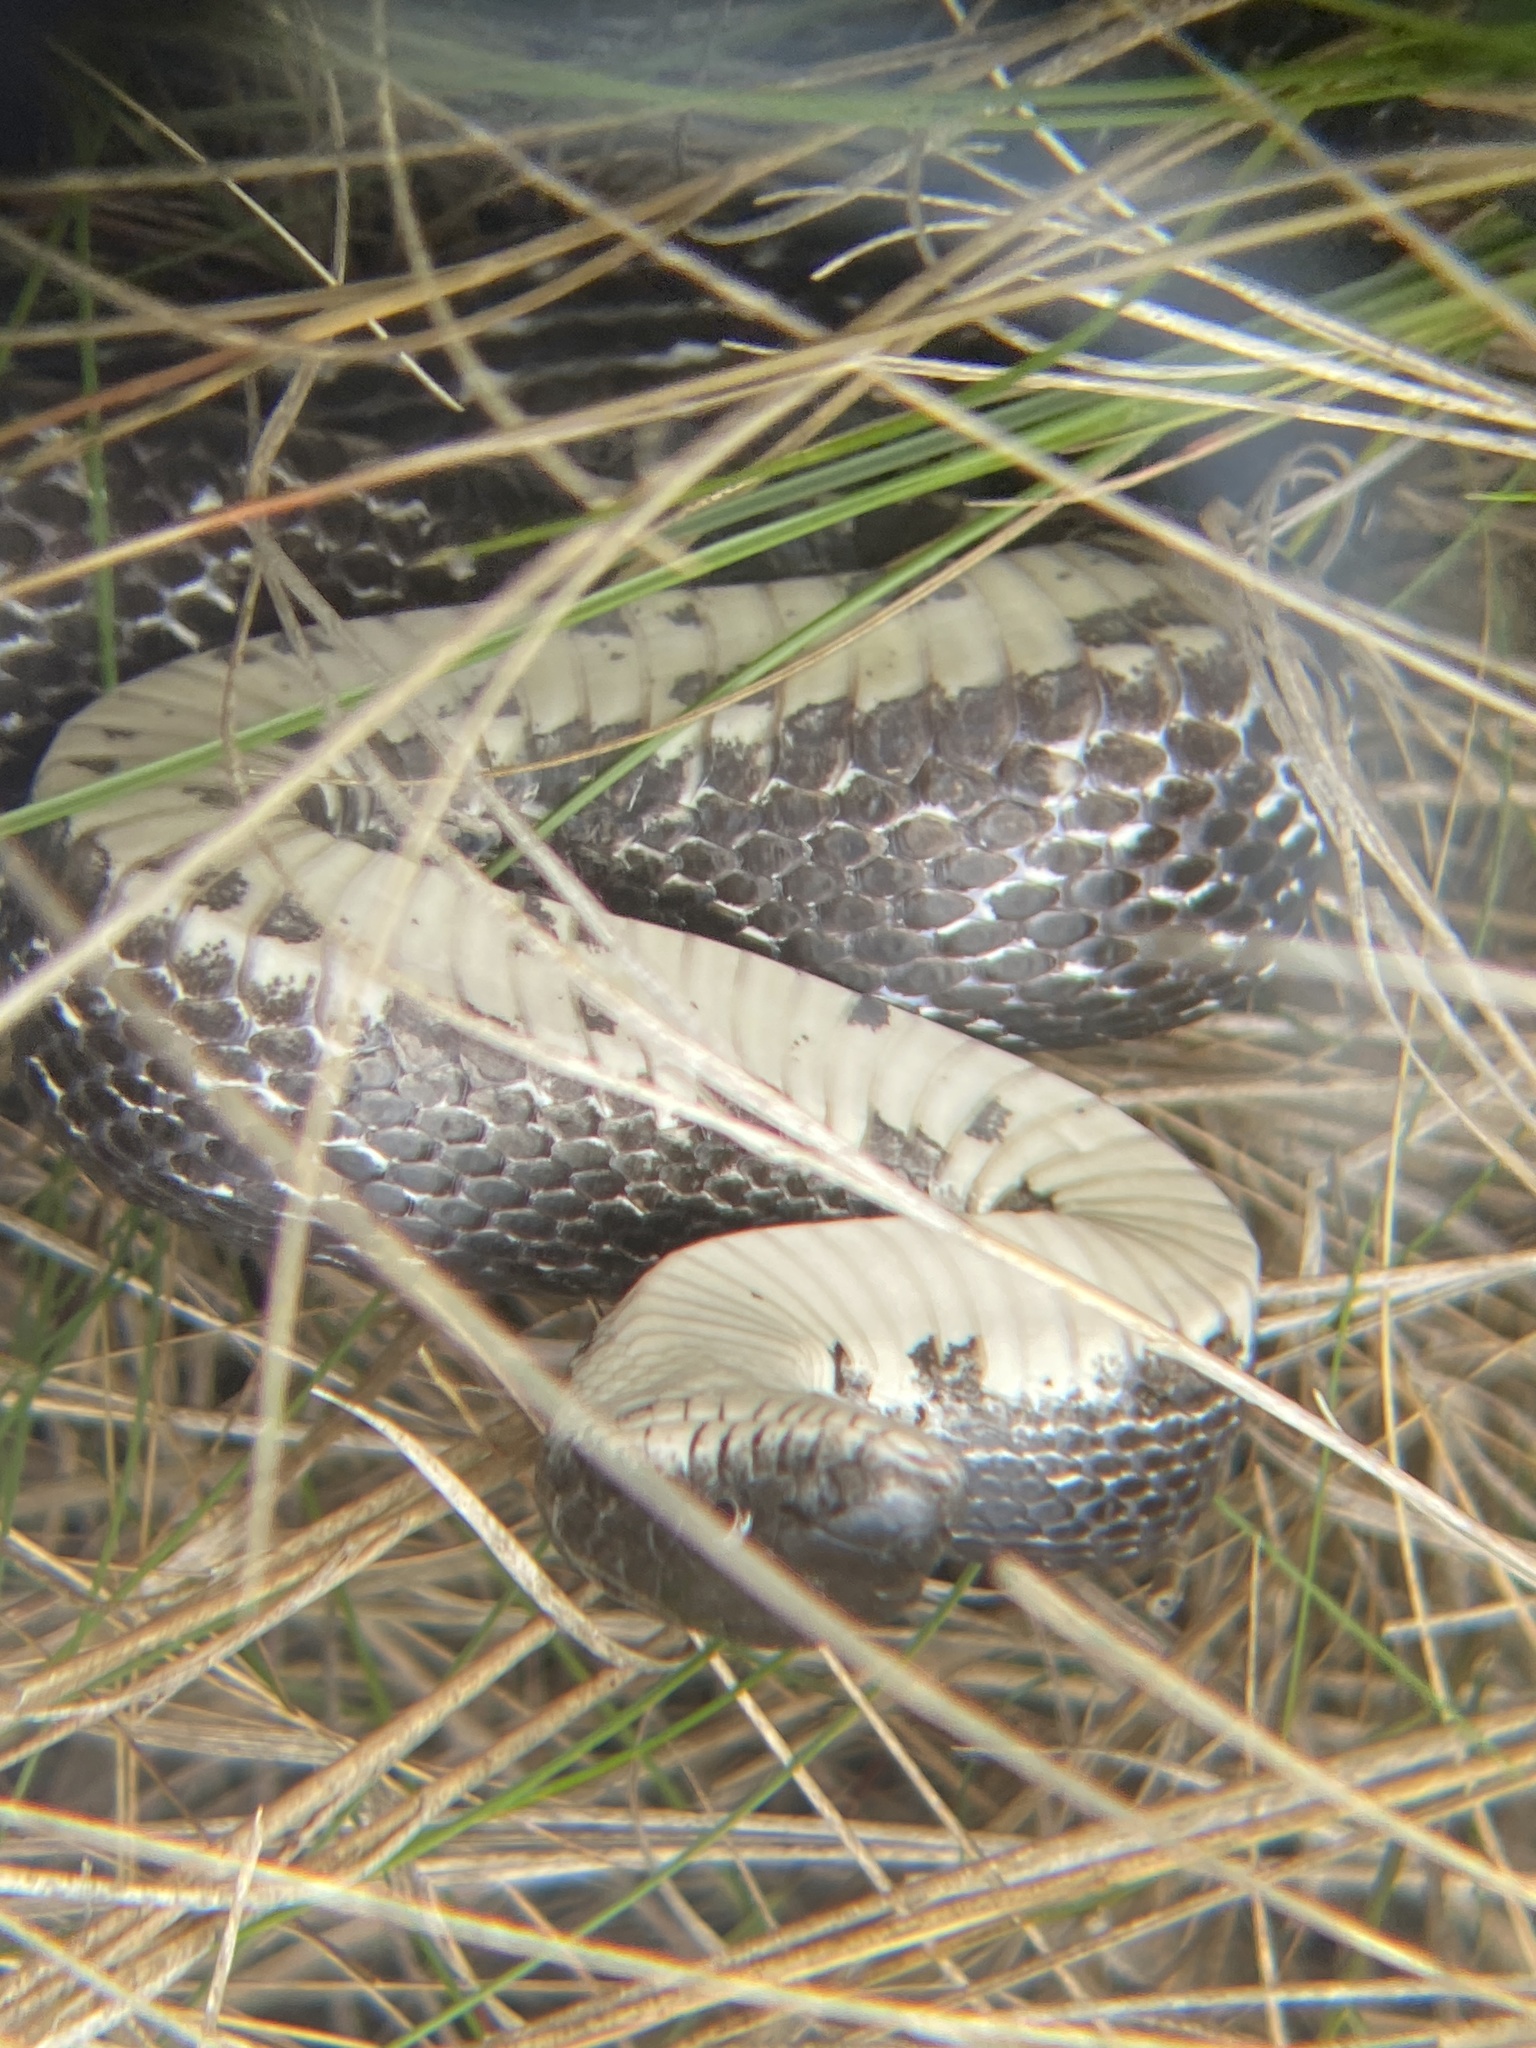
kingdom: Animalia
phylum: Chordata
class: Squamata
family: Colubridae
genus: Pantherophis
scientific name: Pantherophis alleghaniensis
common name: Eastern rat snake
